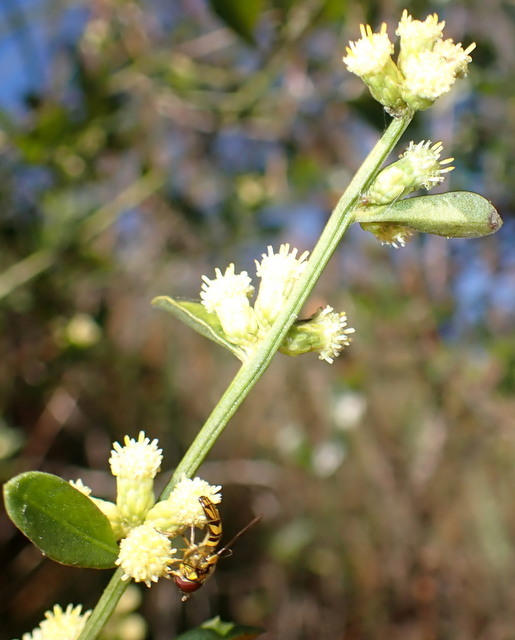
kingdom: Plantae
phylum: Tracheophyta
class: Magnoliopsida
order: Asterales
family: Asteraceae
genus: Baccharis
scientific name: Baccharis glomeruliflora
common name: Silverling groundsel bush
